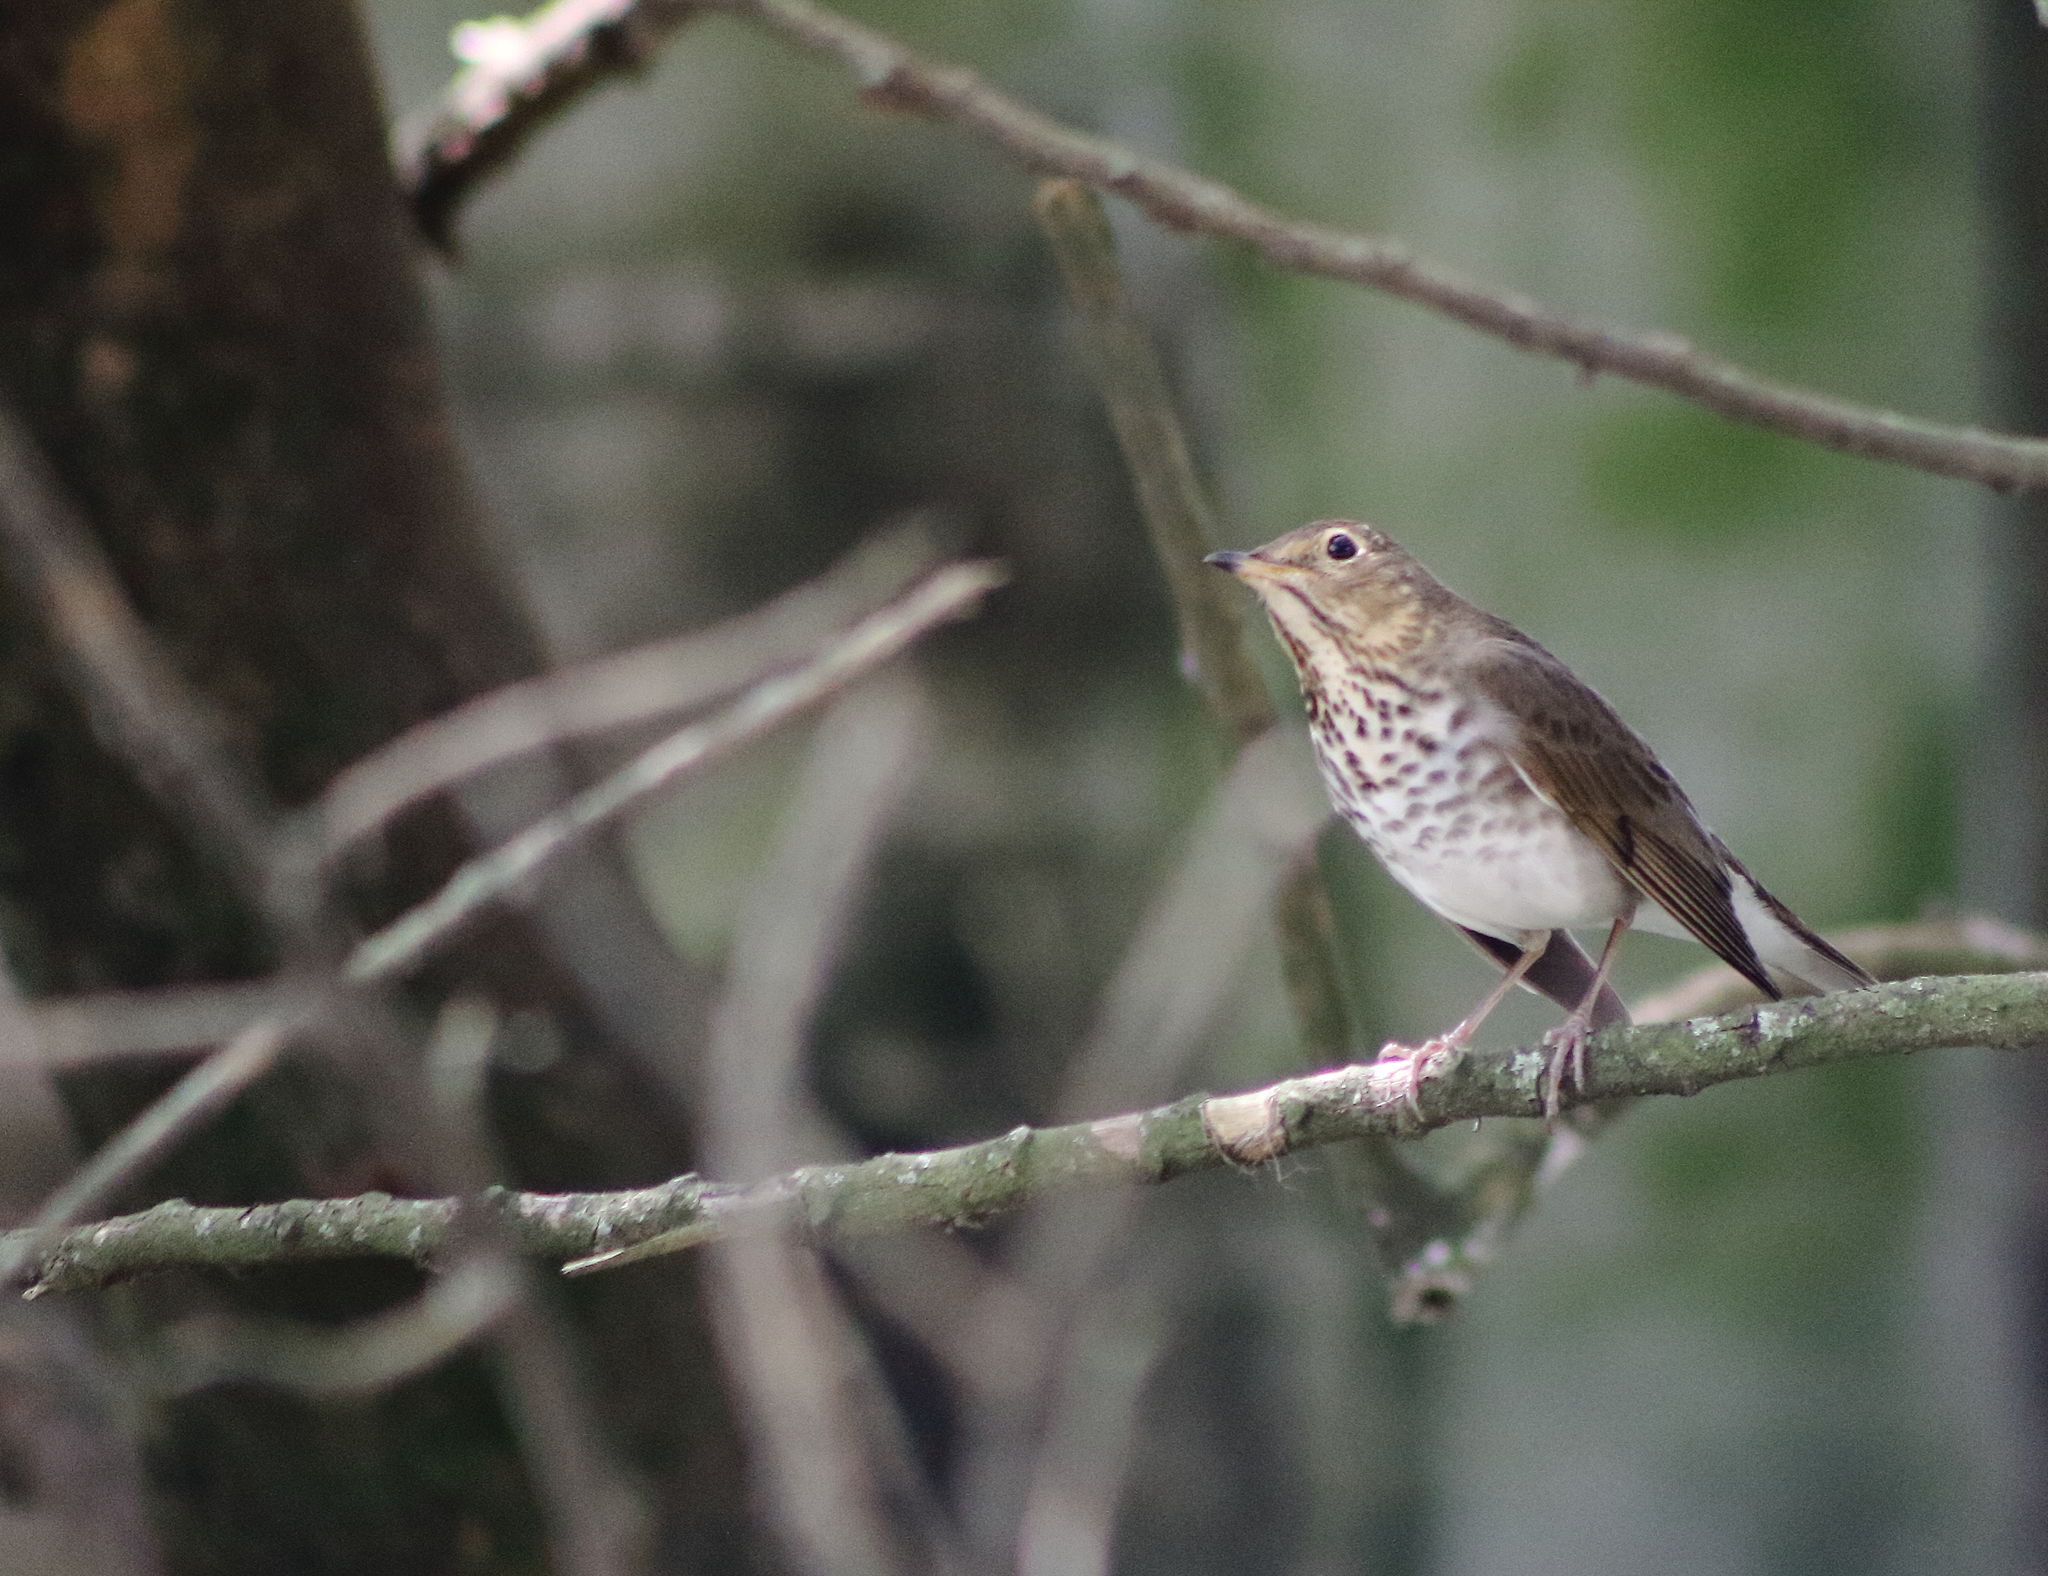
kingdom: Animalia
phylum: Chordata
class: Aves
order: Passeriformes
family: Turdidae
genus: Catharus
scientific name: Catharus ustulatus
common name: Swainson's thrush
